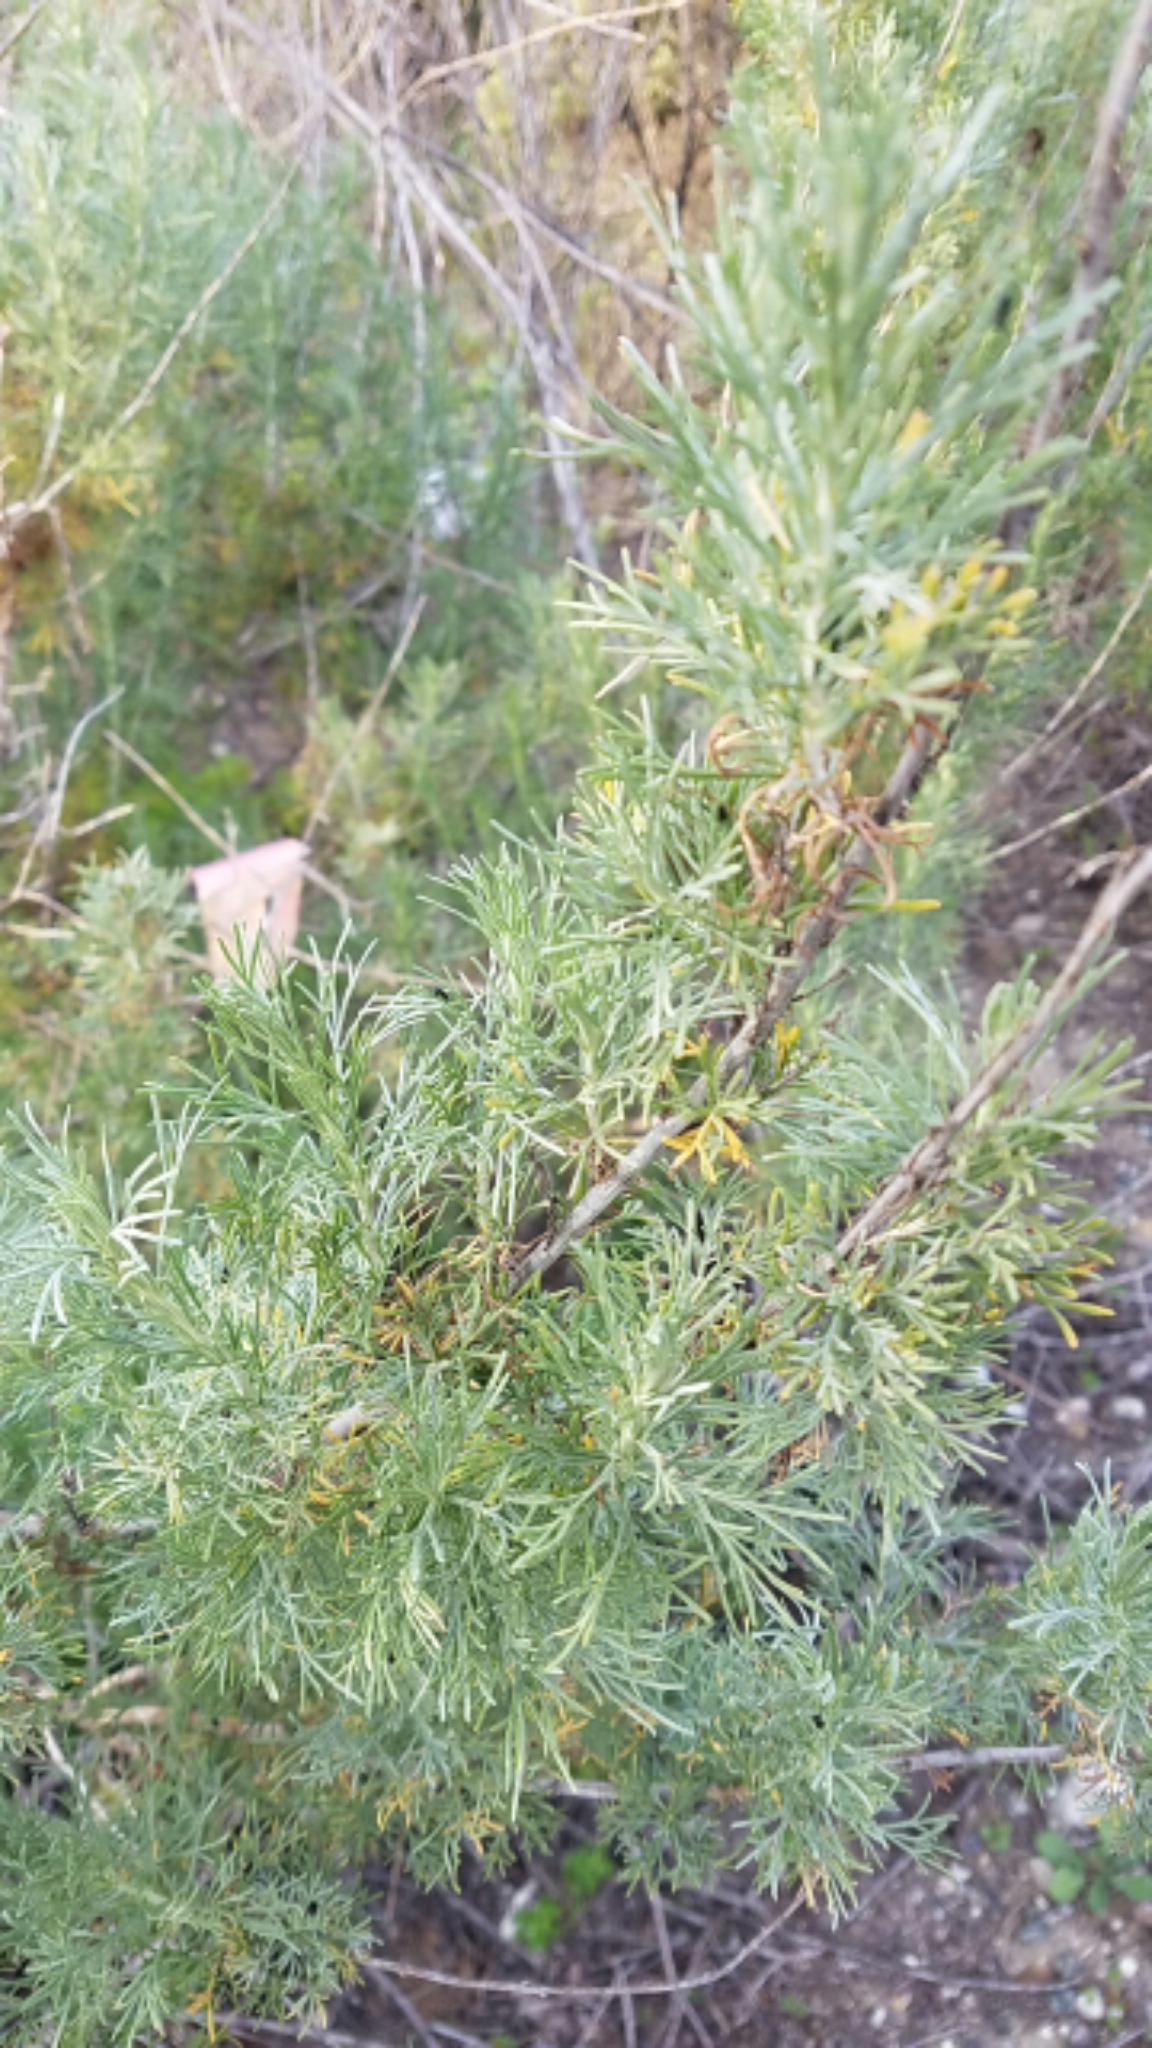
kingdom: Plantae
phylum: Tracheophyta
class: Magnoliopsida
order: Asterales
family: Asteraceae
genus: Artemisia
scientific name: Artemisia californica
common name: California sagebrush
